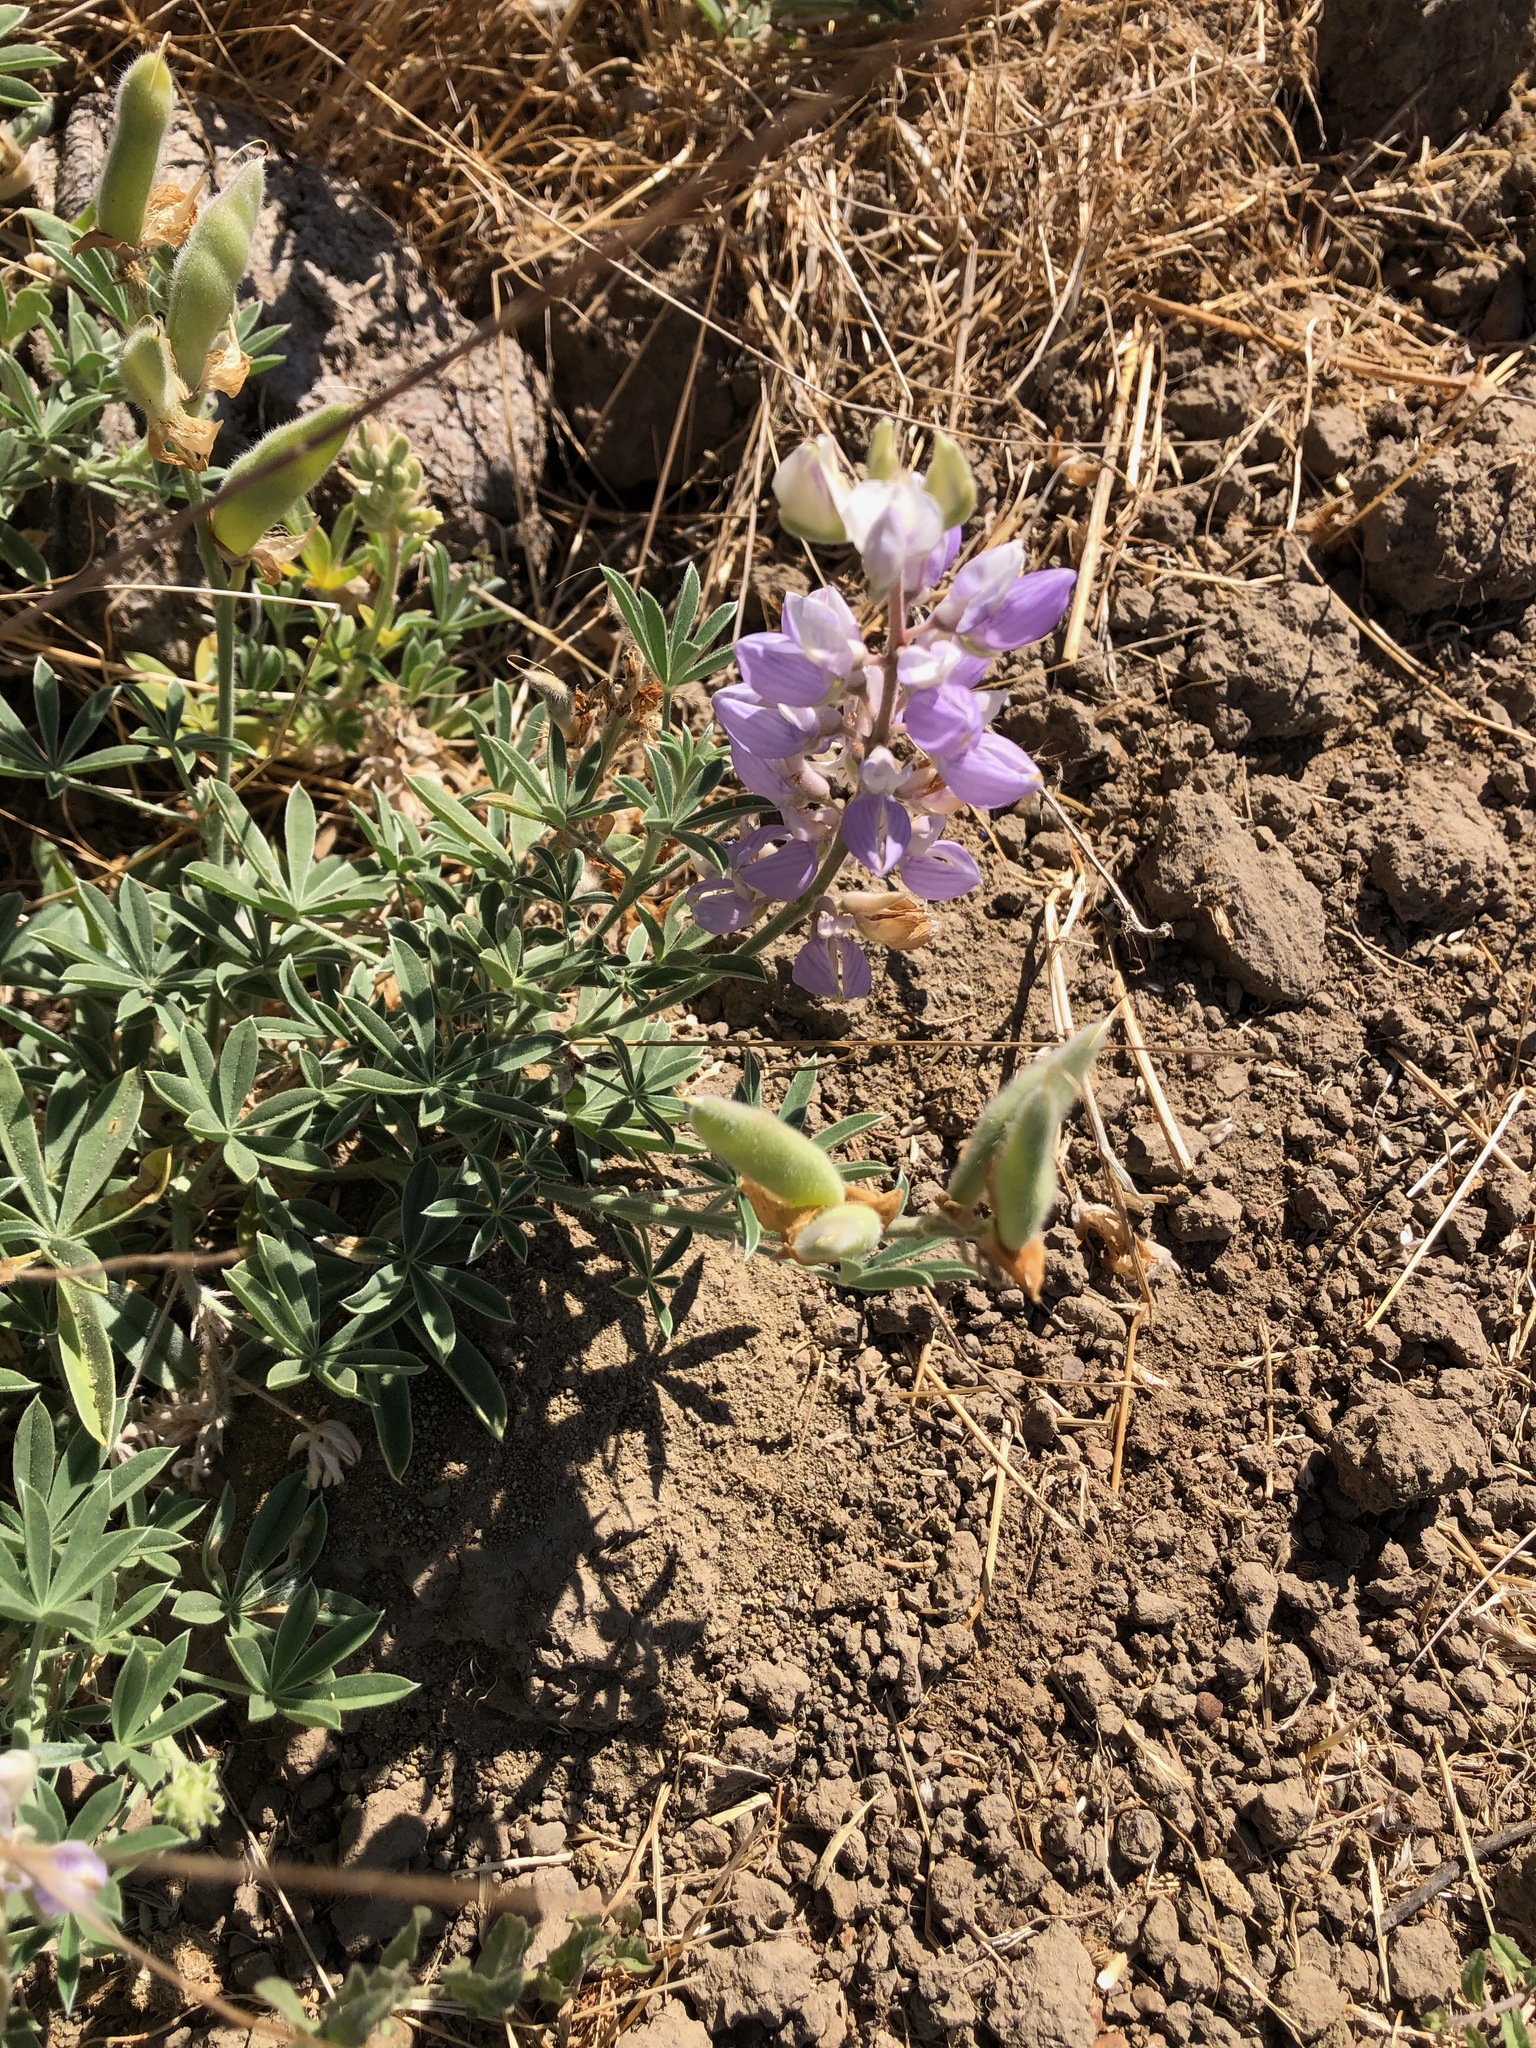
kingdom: Plantae
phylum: Tracheophyta
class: Magnoliopsida
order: Fabales
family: Fabaceae
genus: Lupinus
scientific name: Lupinus formosus
